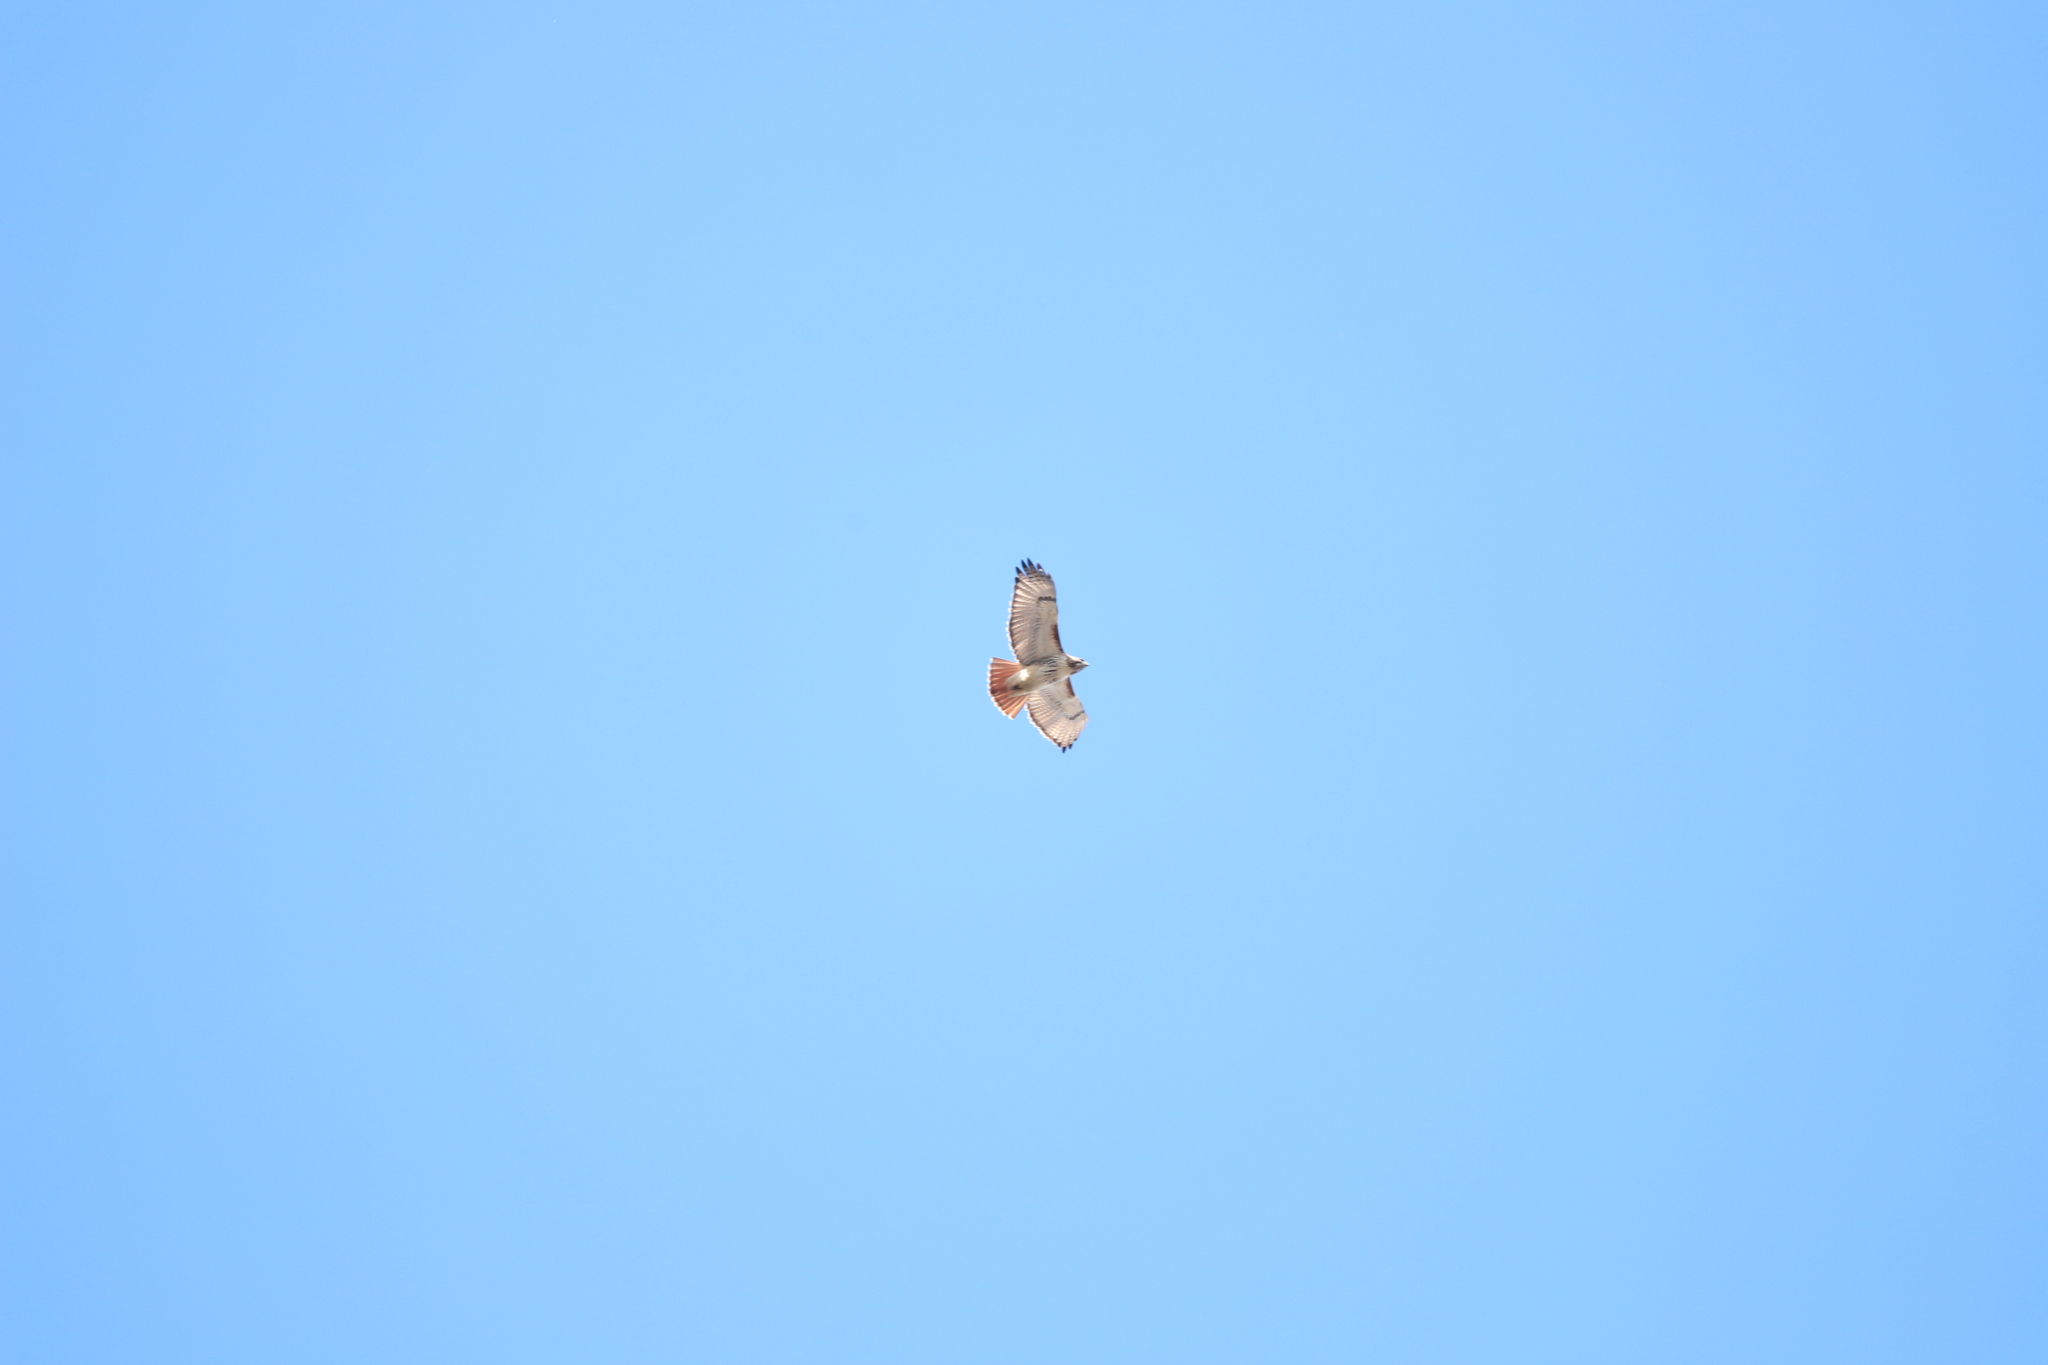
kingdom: Animalia
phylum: Chordata
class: Aves
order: Accipitriformes
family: Accipitridae
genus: Buteo
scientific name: Buteo jamaicensis
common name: Red-tailed hawk
